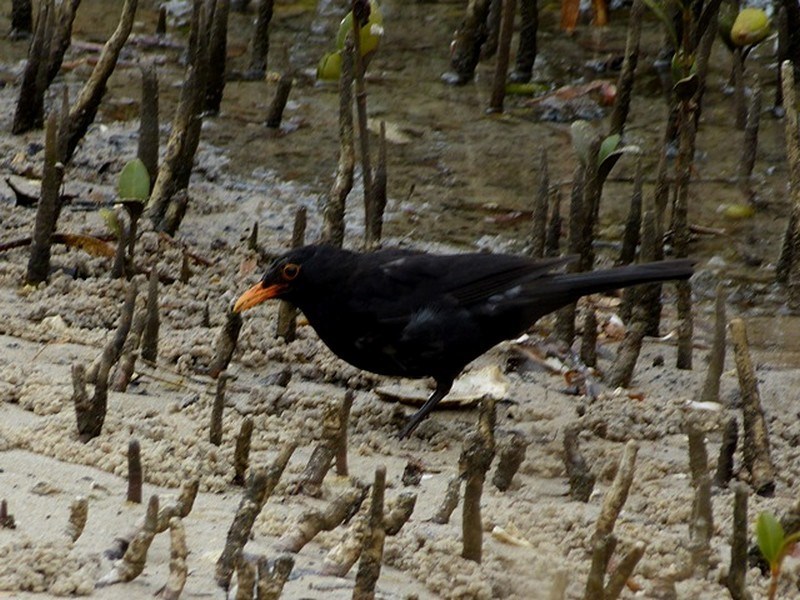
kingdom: Animalia
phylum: Chordata
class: Aves
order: Passeriformes
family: Turdidae
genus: Turdus
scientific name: Turdus merula
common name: Common blackbird
